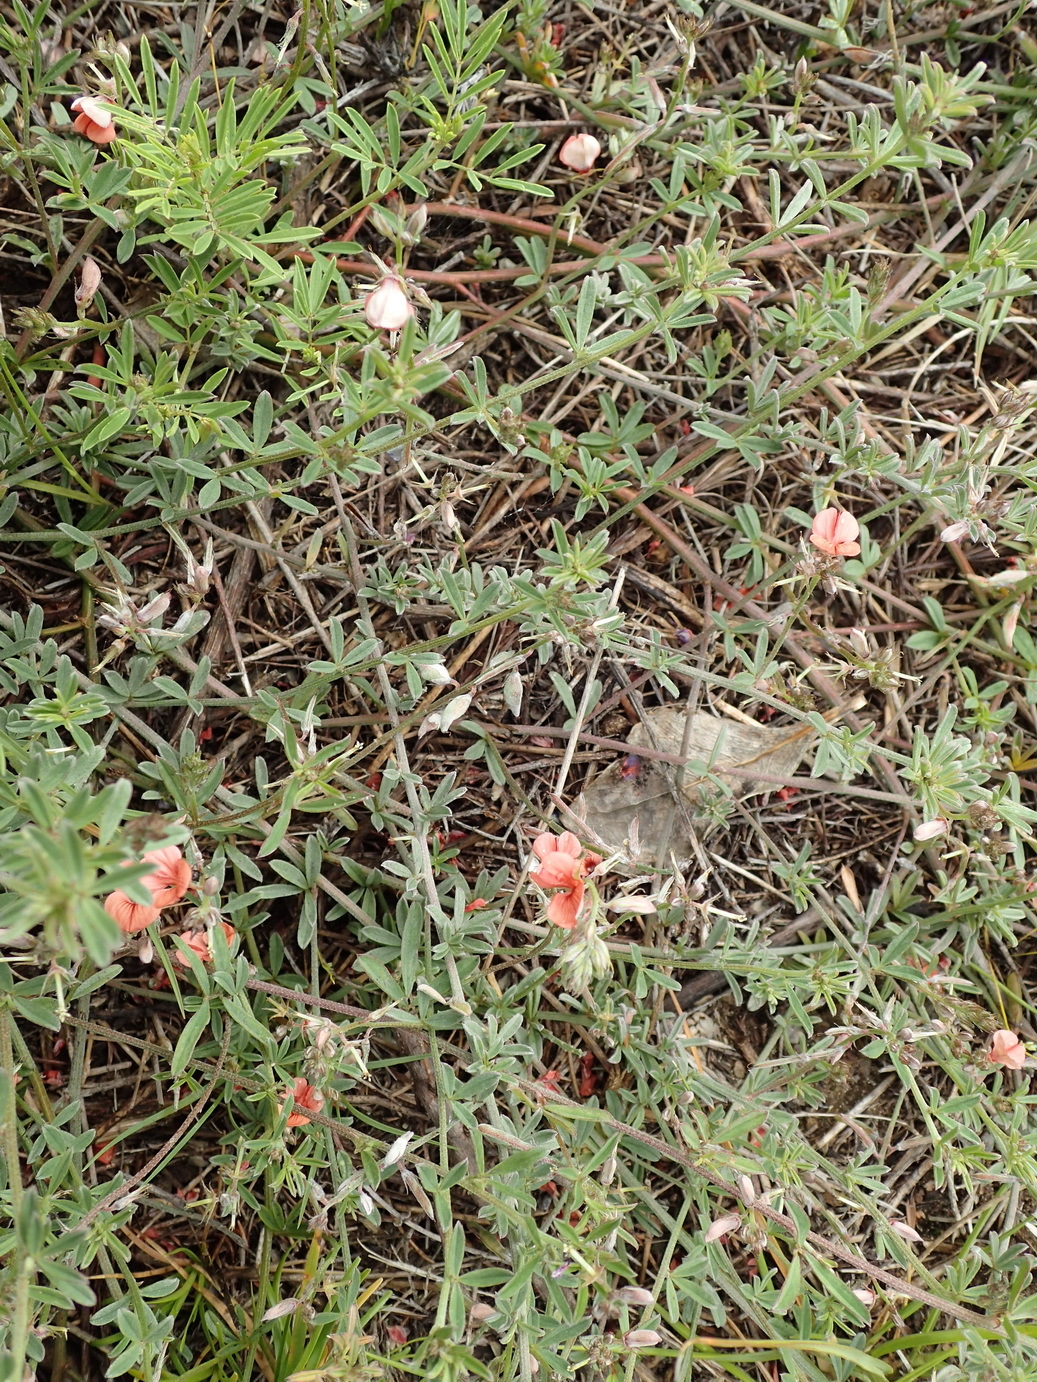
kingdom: Plantae
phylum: Tracheophyta
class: Magnoliopsida
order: Fabales
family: Fabaceae
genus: Indigofera
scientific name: Indigofera priorii
